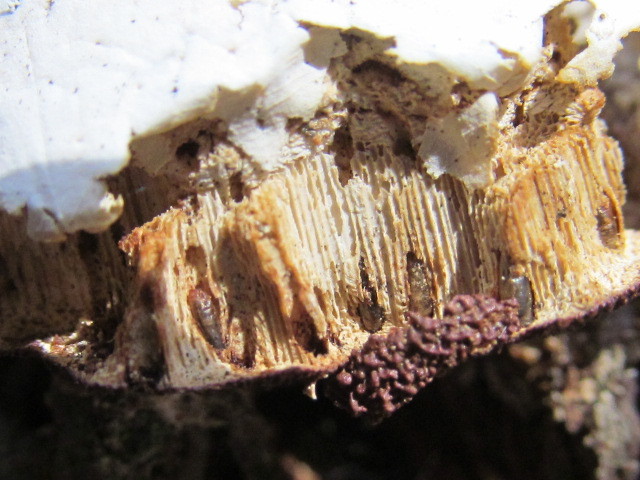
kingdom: Fungi
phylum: Basidiomycota
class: Agaricomycetes
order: Polyporales
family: Polyporaceae
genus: Cryptoporus
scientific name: Cryptoporus volvatus
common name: Veiled polypore
